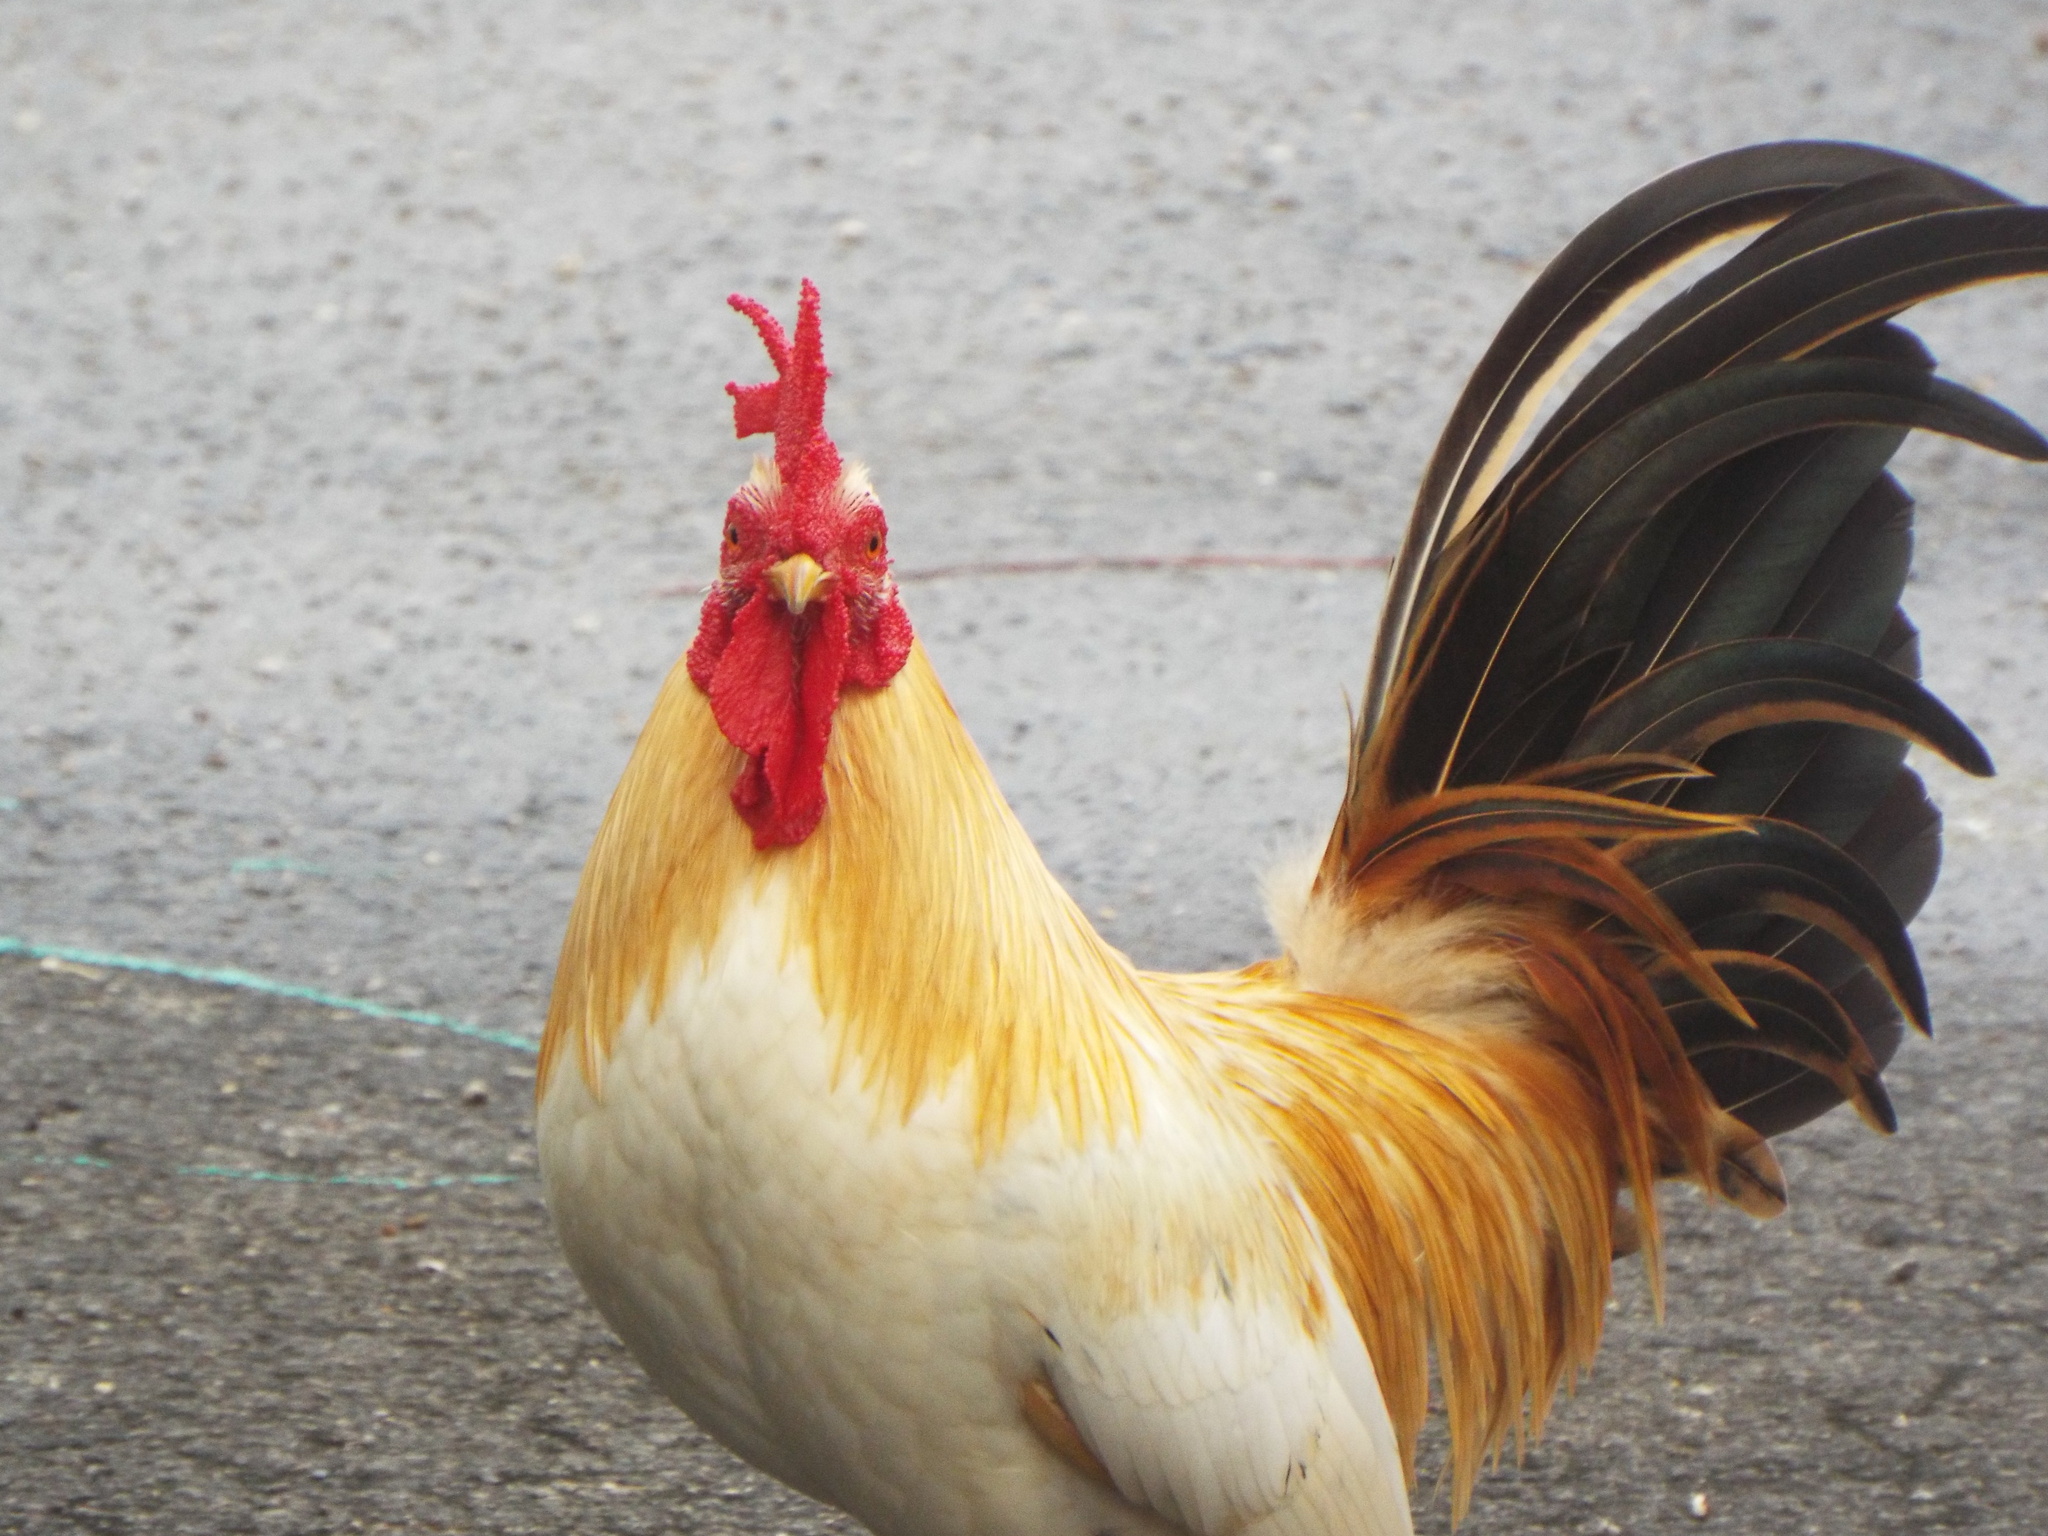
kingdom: Animalia
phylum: Chordata
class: Aves
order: Galliformes
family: Phasianidae
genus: Gallus
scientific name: Gallus gallus
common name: Red junglefowl
